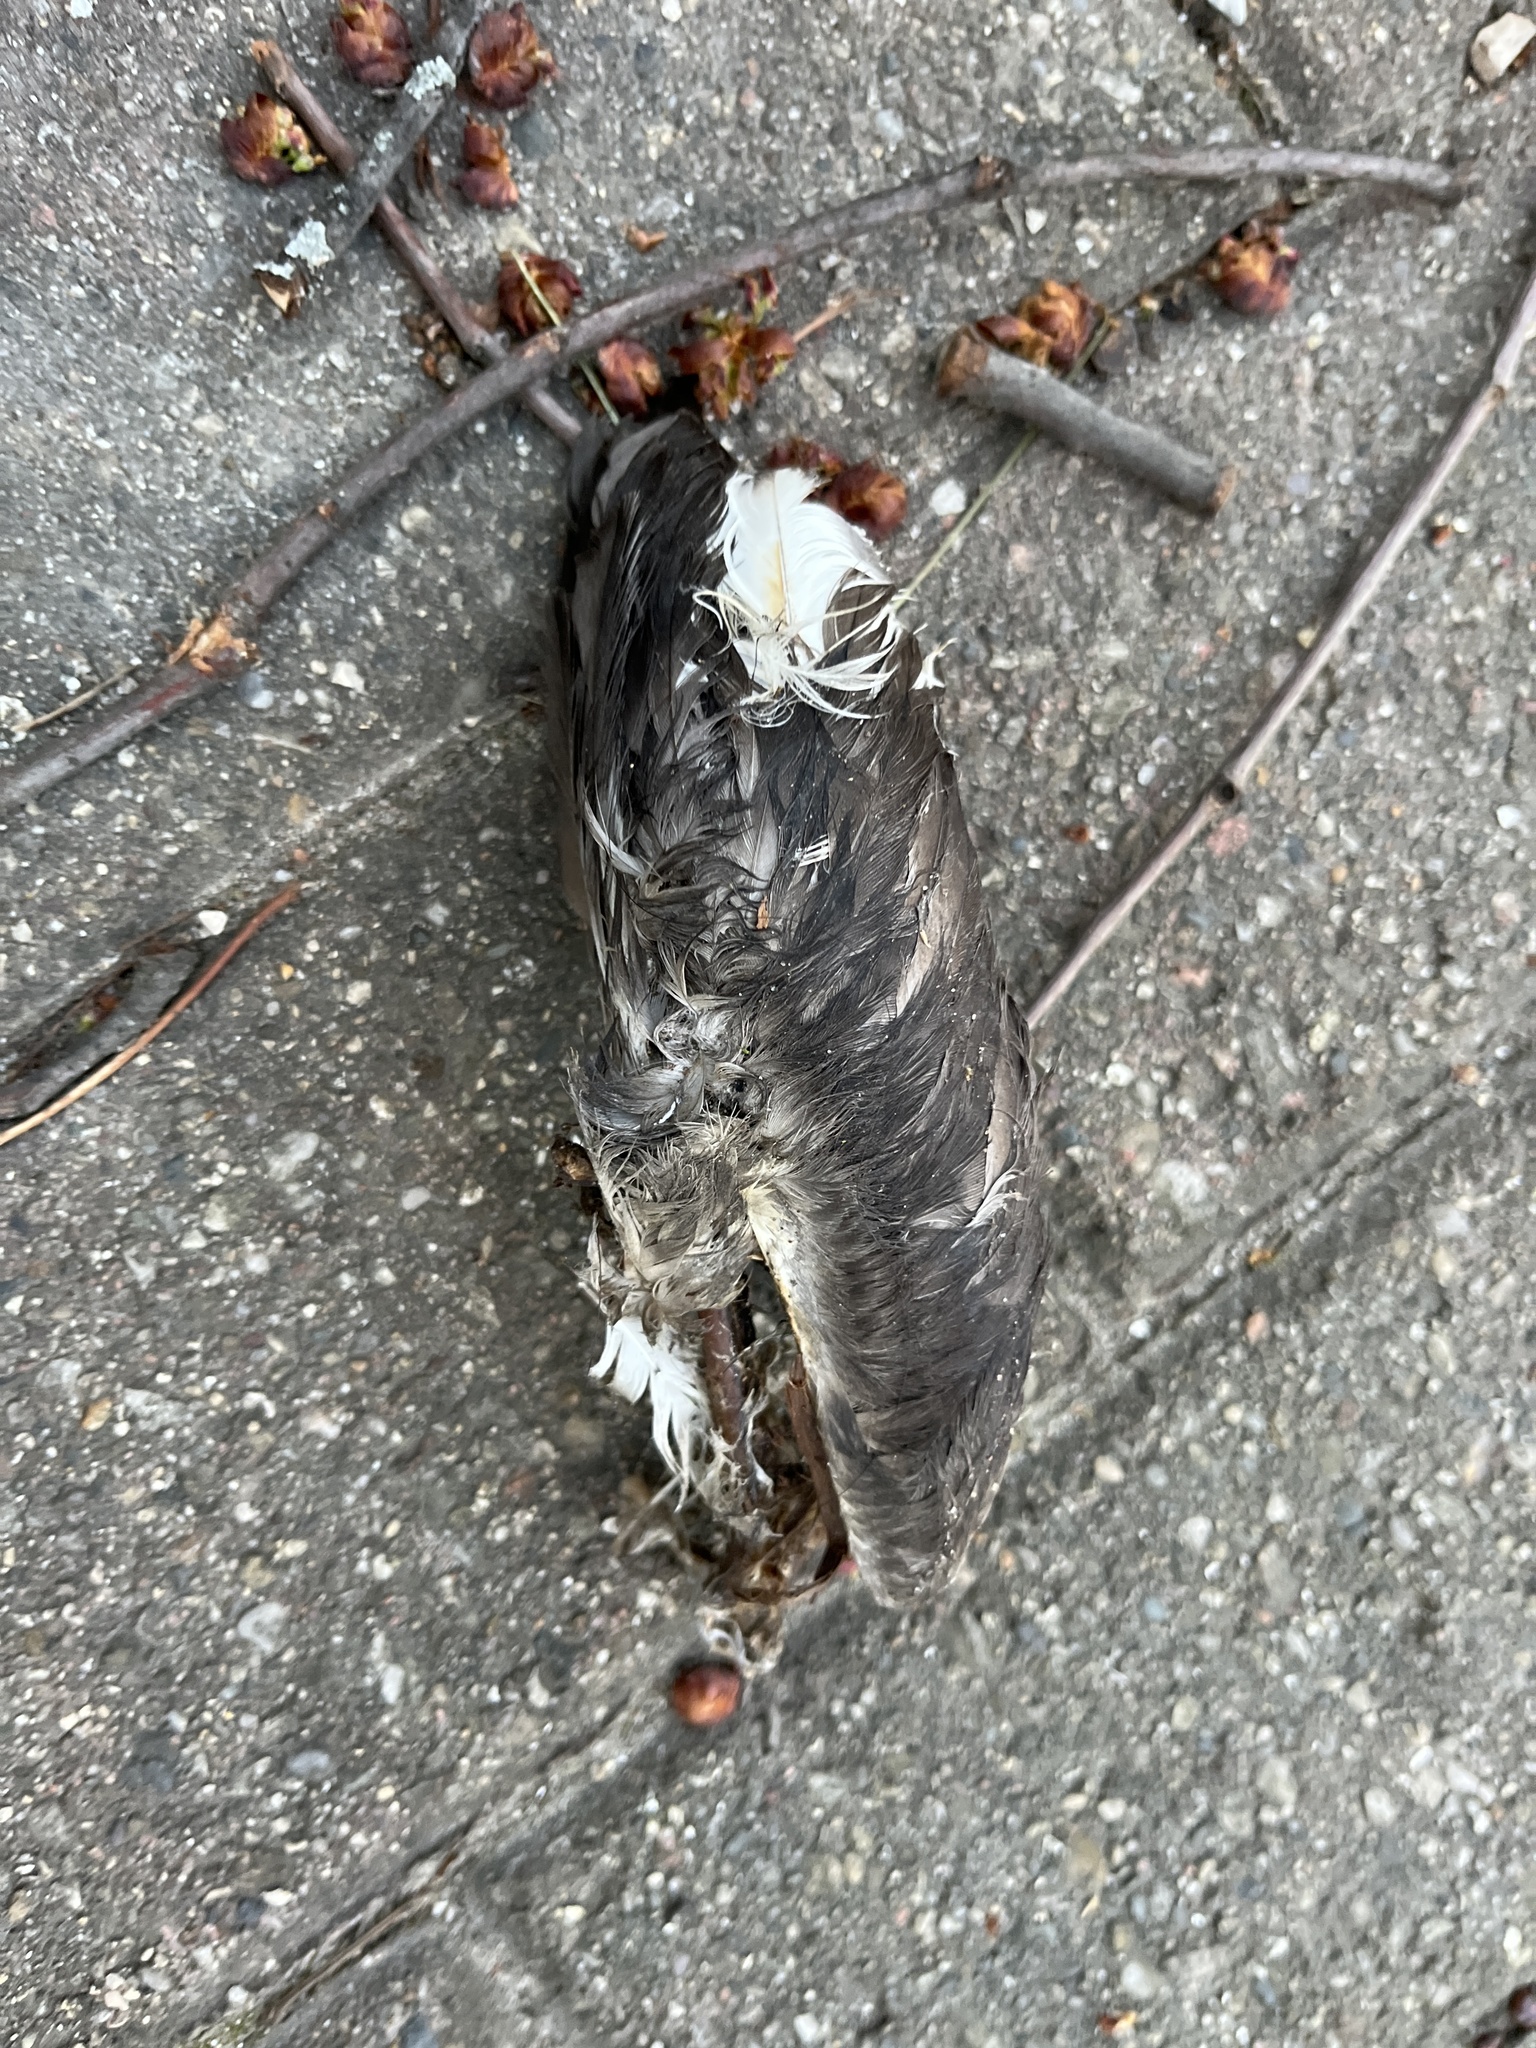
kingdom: Animalia
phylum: Chordata
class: Aves
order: Podicipediformes
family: Podicipedidae
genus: Podiceps
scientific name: Podiceps auritus
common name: Horned grebe
